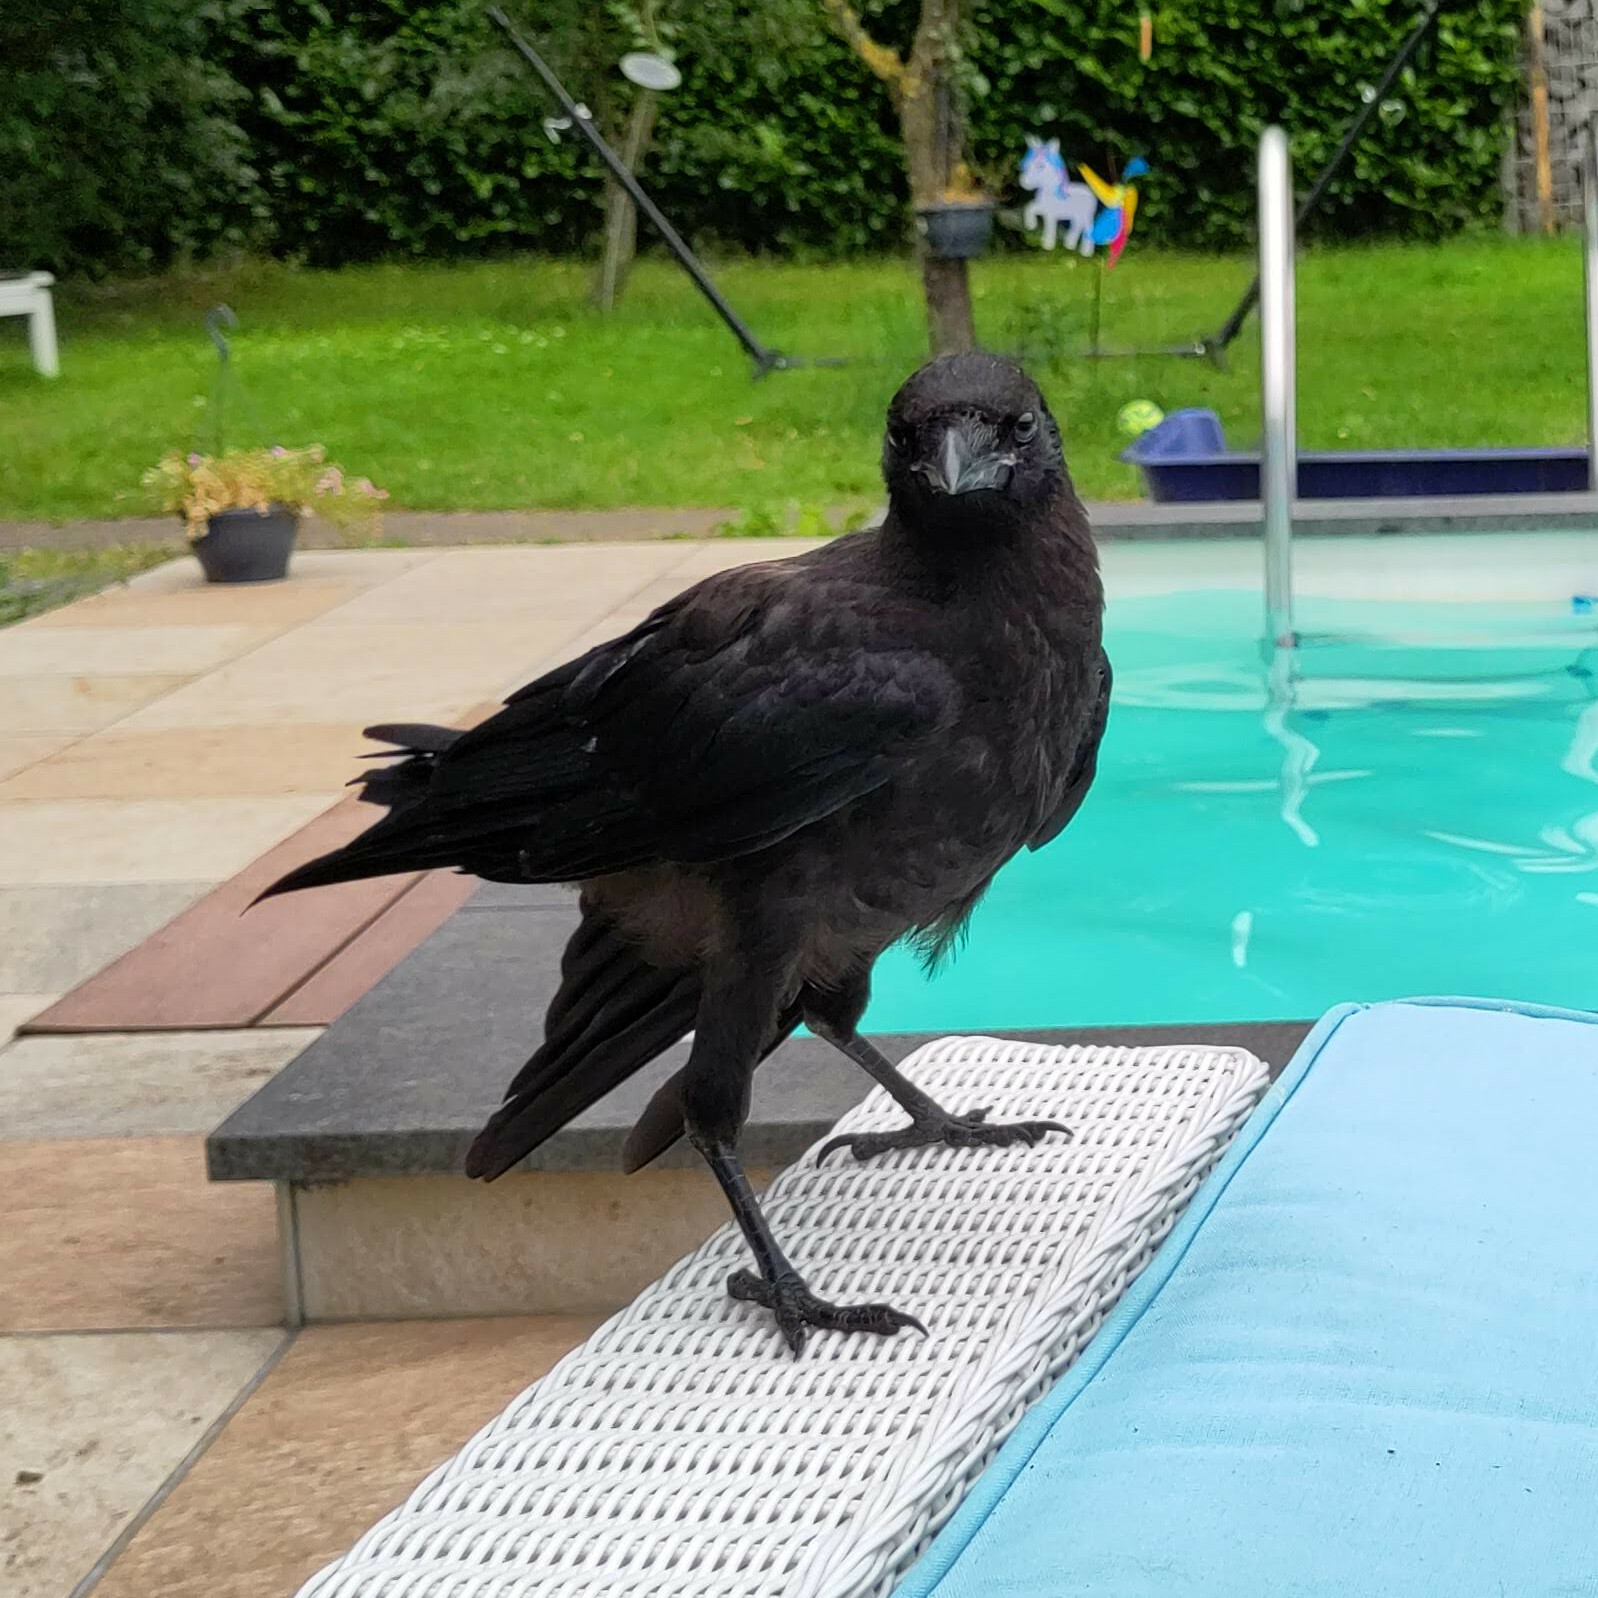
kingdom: Animalia
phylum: Chordata
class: Aves
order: Passeriformes
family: Corvidae
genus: Corvus
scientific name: Corvus corone
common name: Carrion crow
